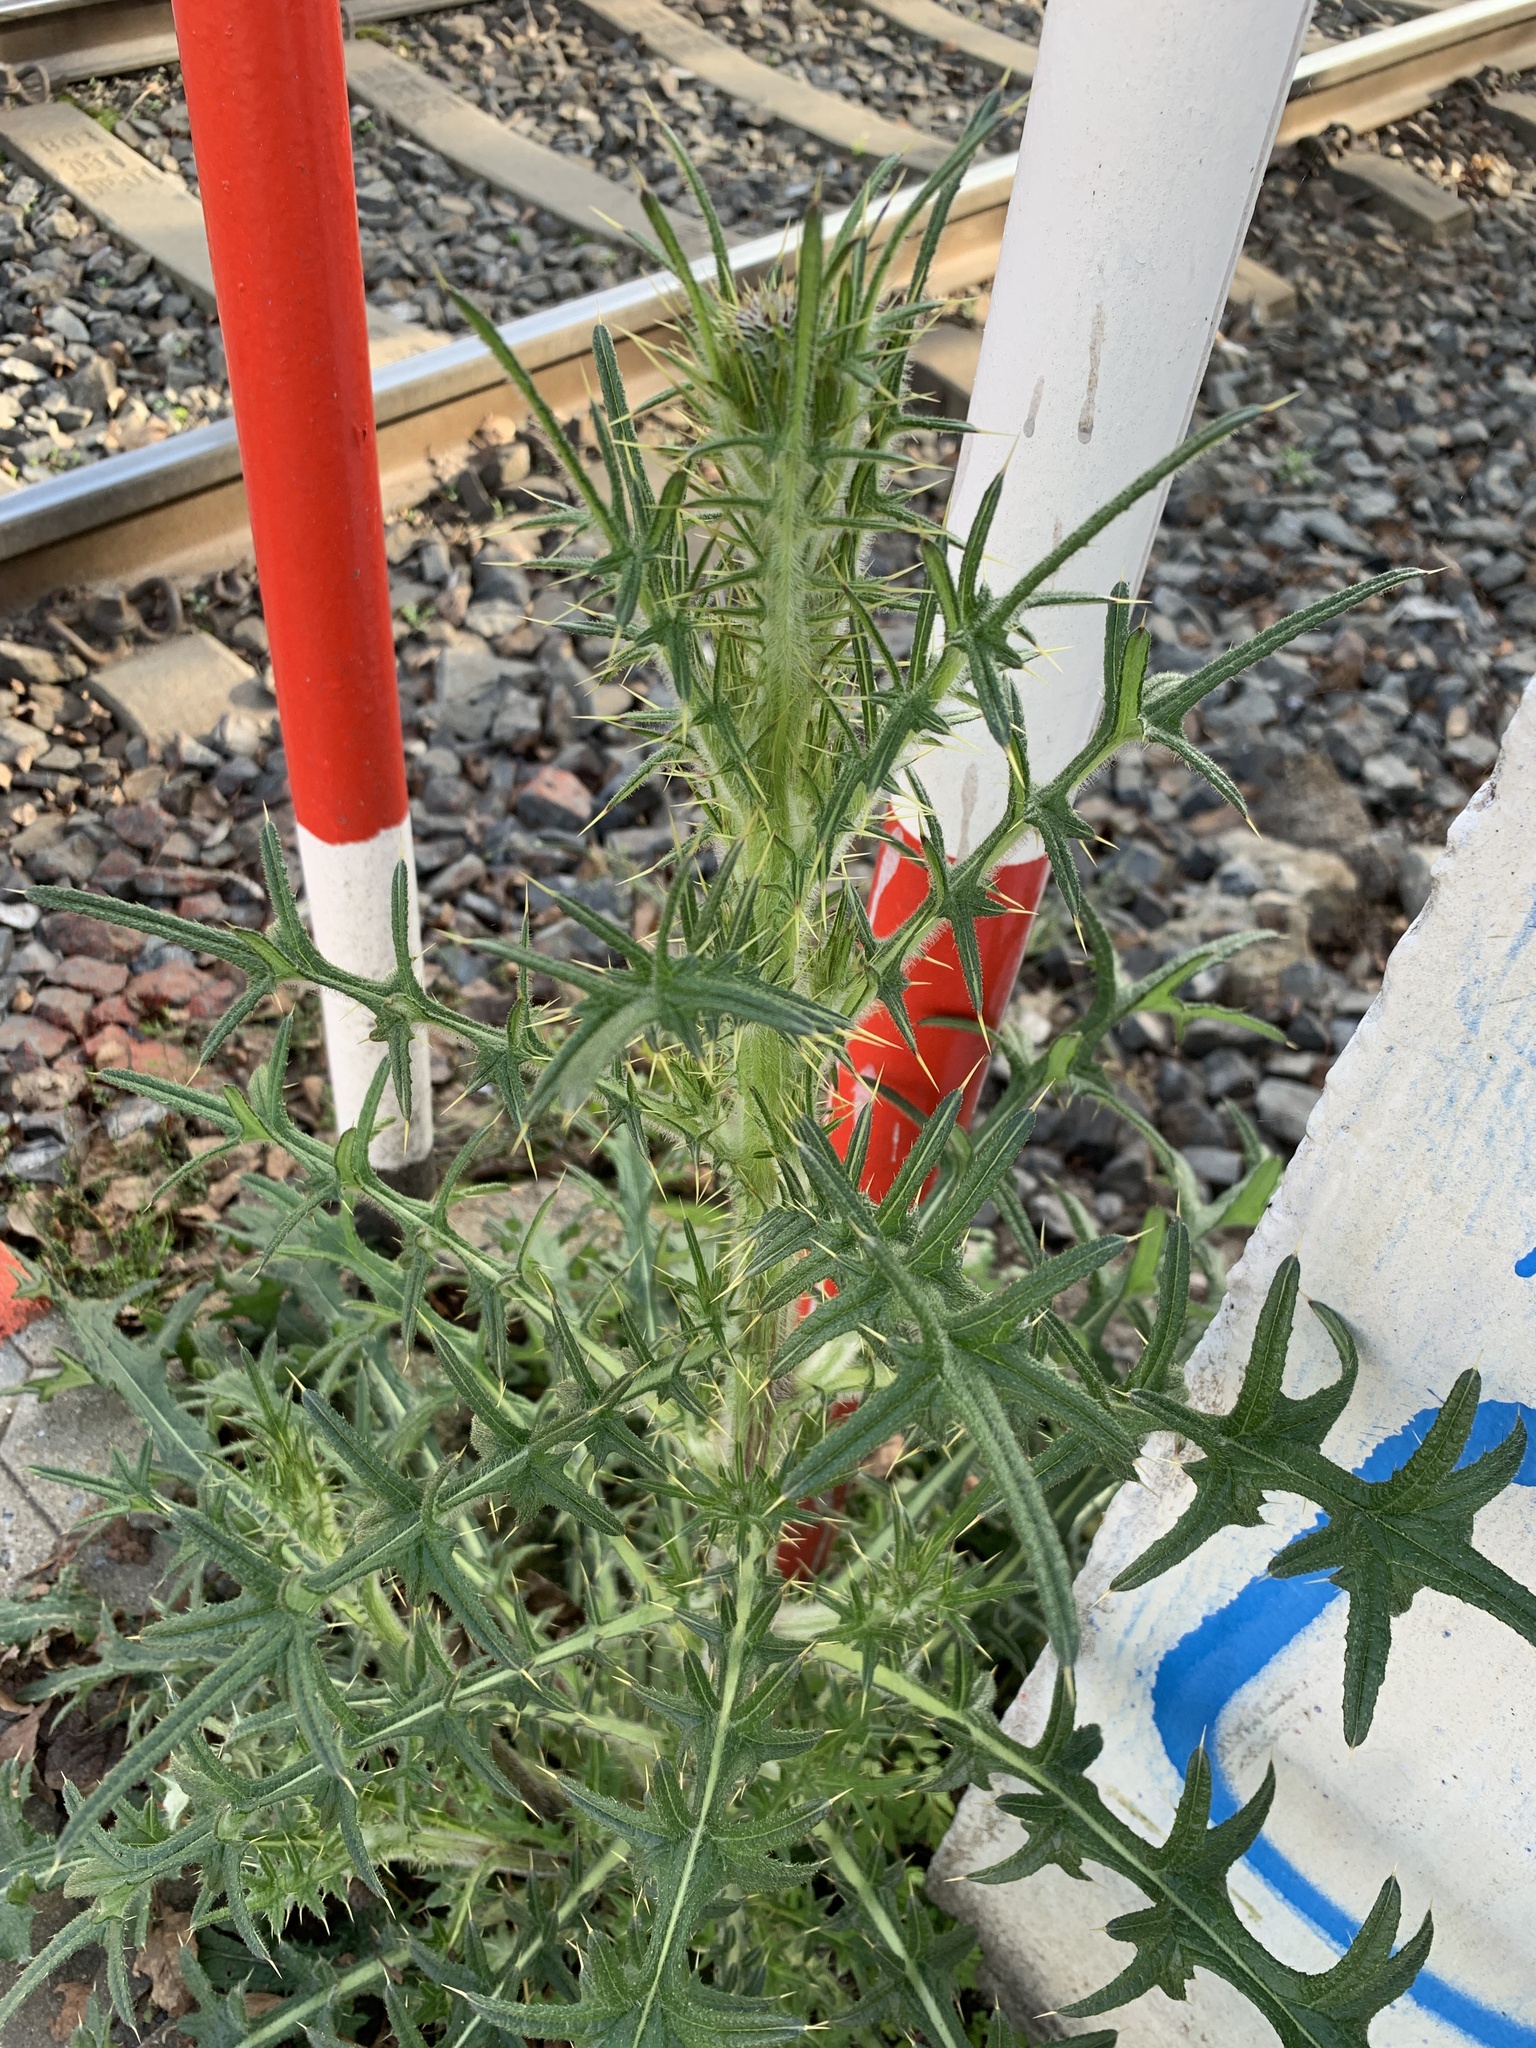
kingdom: Plantae
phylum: Tracheophyta
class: Magnoliopsida
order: Asterales
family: Asteraceae
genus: Cirsium
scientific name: Cirsium vulgare
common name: Bull thistle
